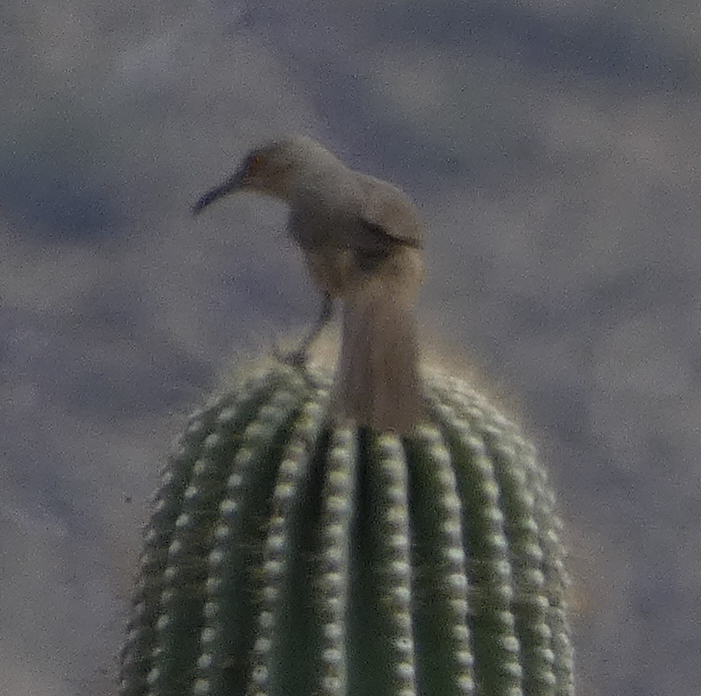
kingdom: Animalia
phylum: Chordata
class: Aves
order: Passeriformes
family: Mimidae
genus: Toxostoma
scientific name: Toxostoma curvirostre
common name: Curve-billed thrasher
